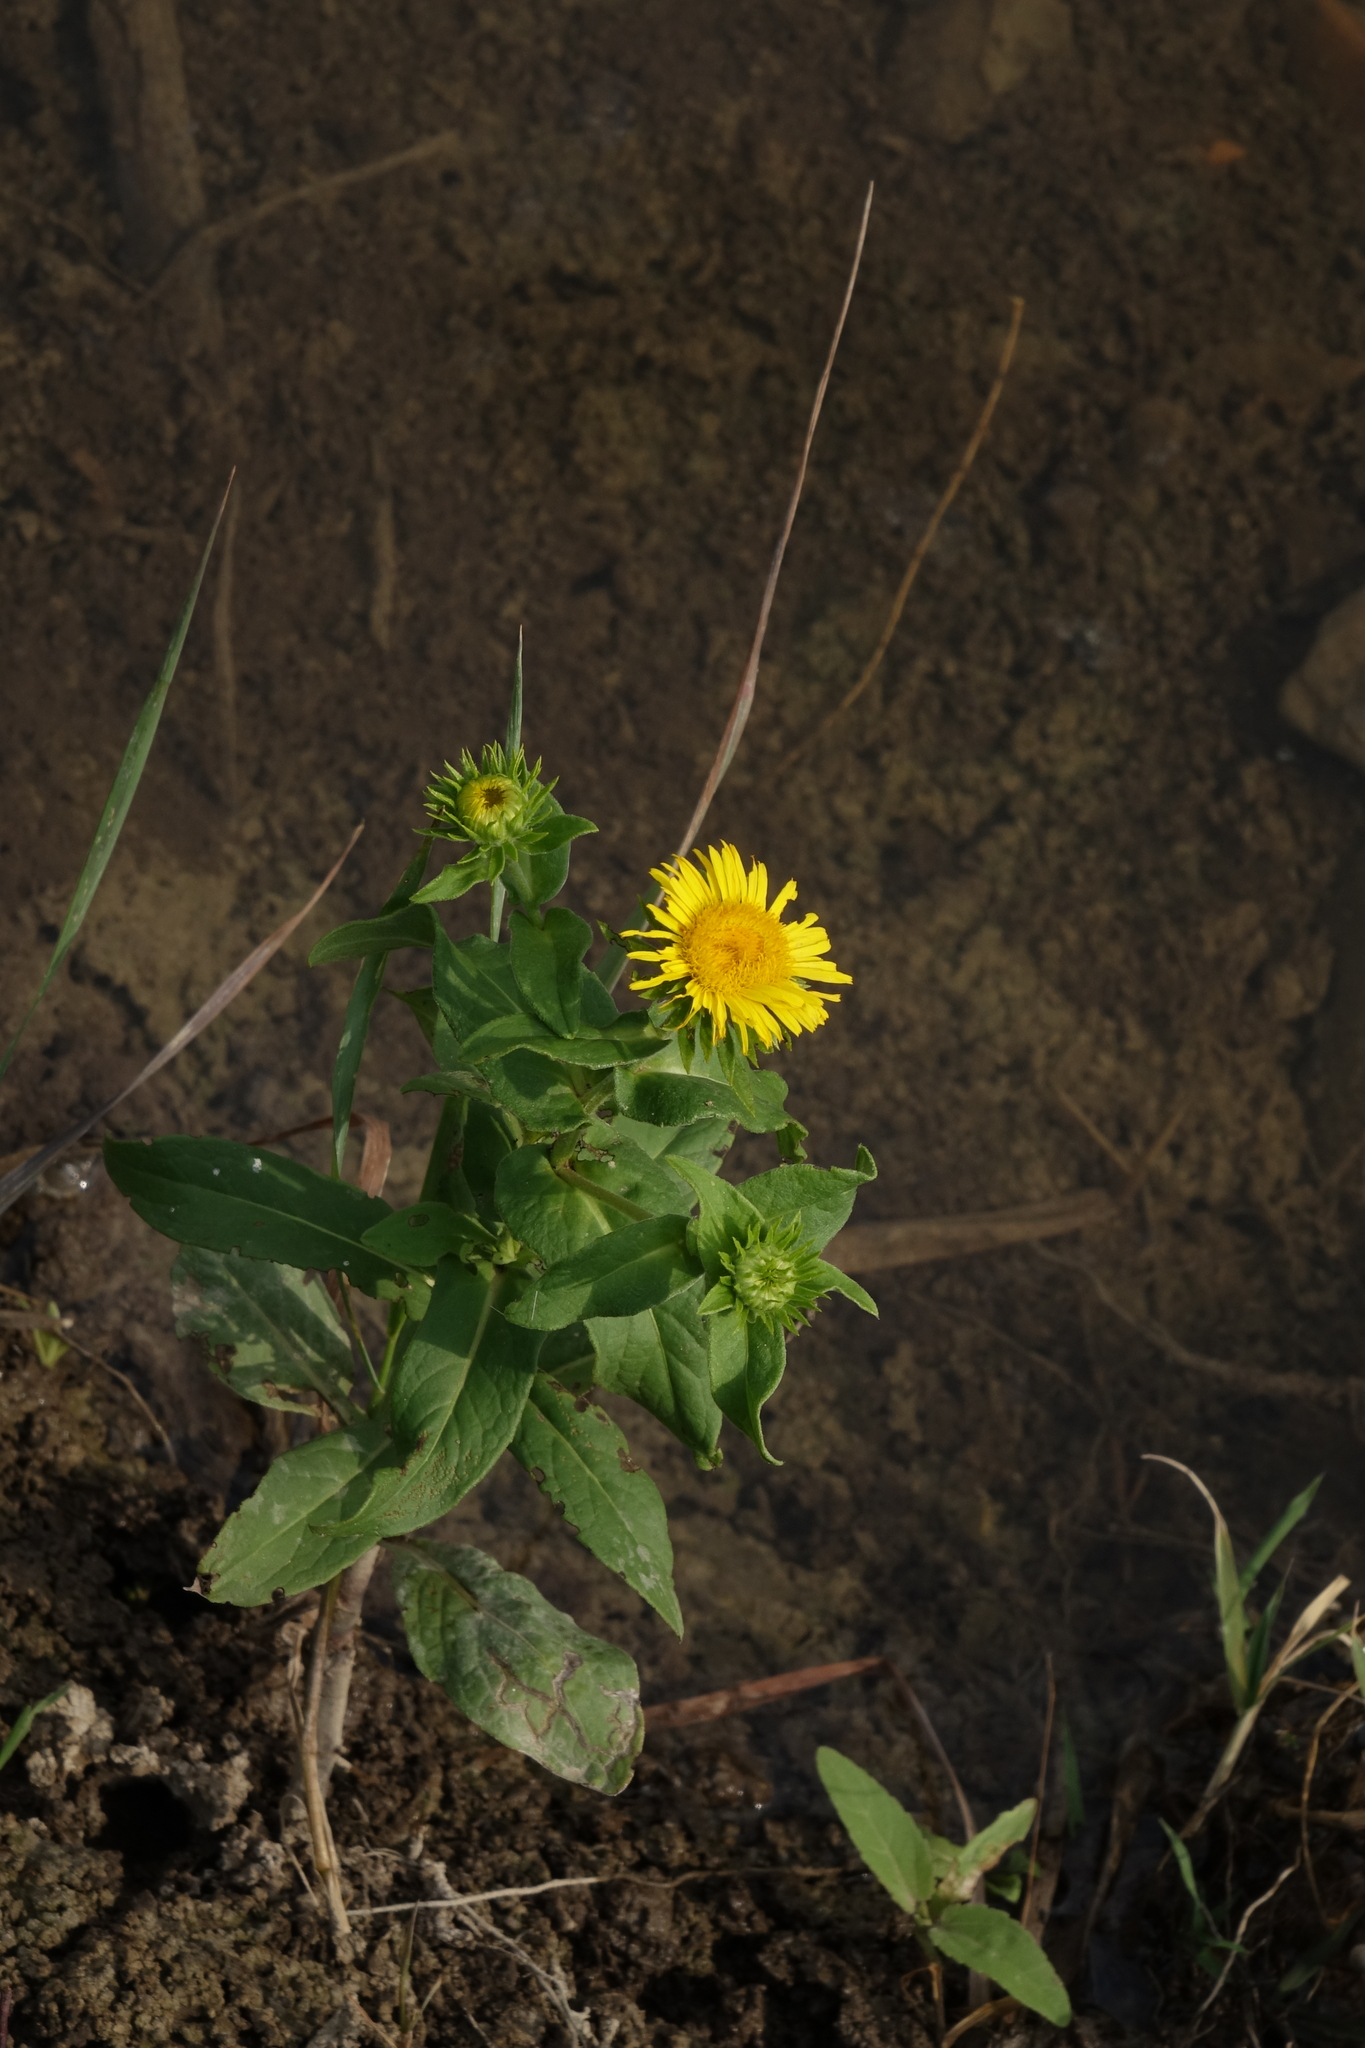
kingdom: Plantae
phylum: Tracheophyta
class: Magnoliopsida
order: Asterales
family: Asteraceae
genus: Pentanema
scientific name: Pentanema britannicum
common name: British elecampane
